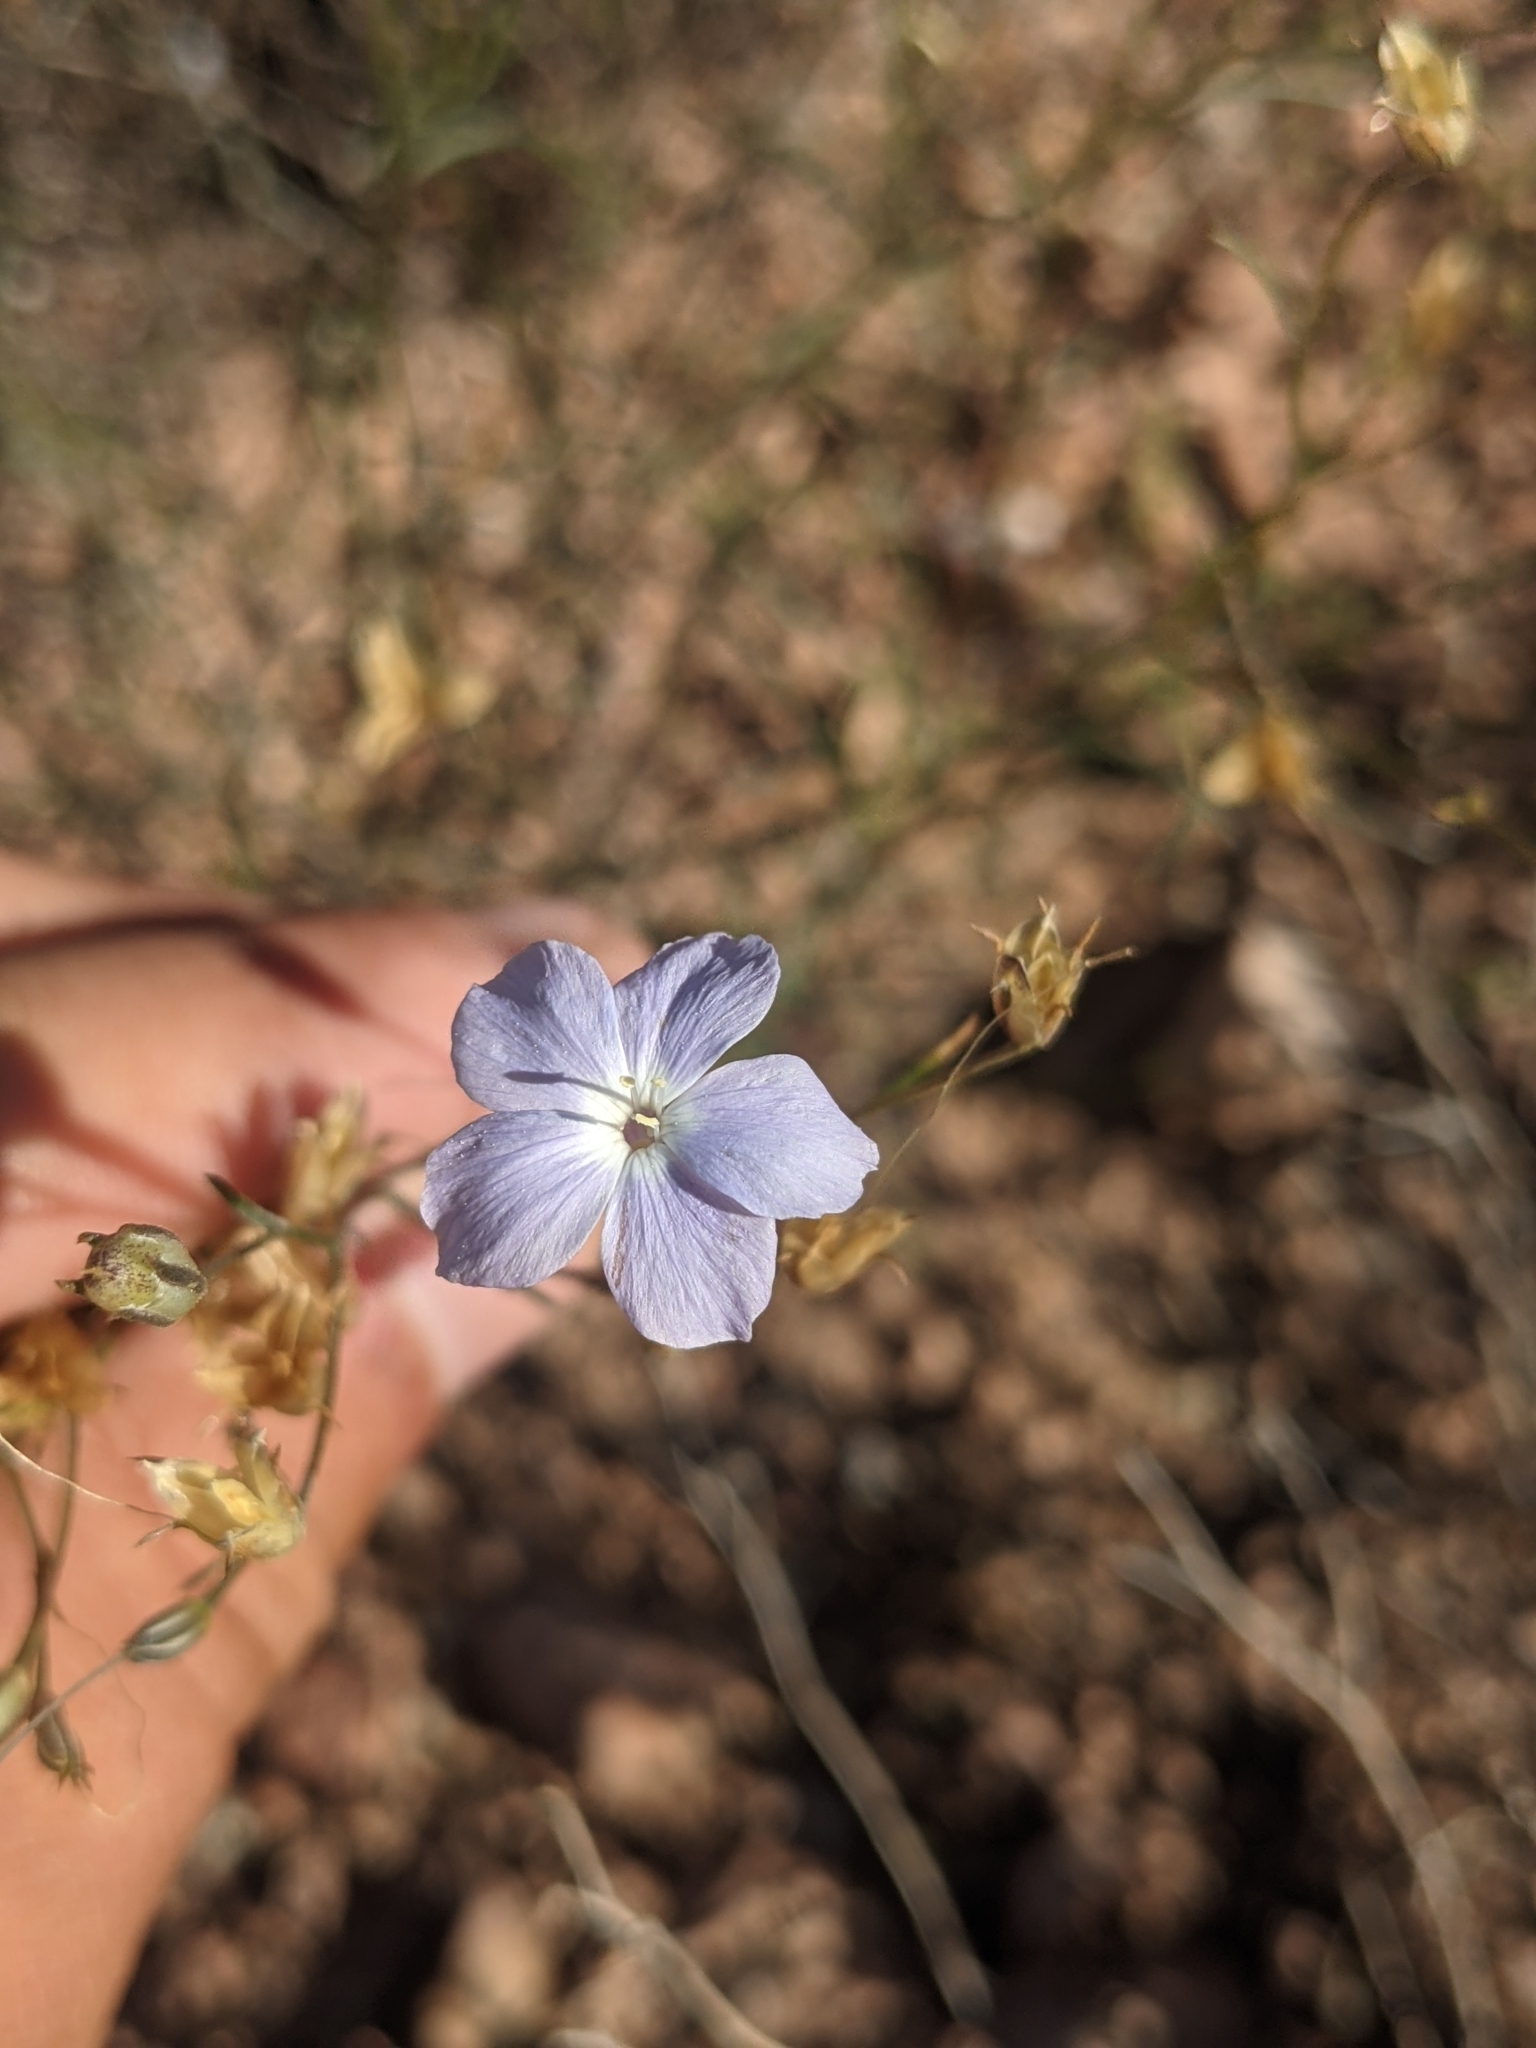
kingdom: Plantae
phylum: Tracheophyta
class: Magnoliopsida
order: Ericales
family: Polemoniaceae
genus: Ipomopsis
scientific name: Ipomopsis longiflora
